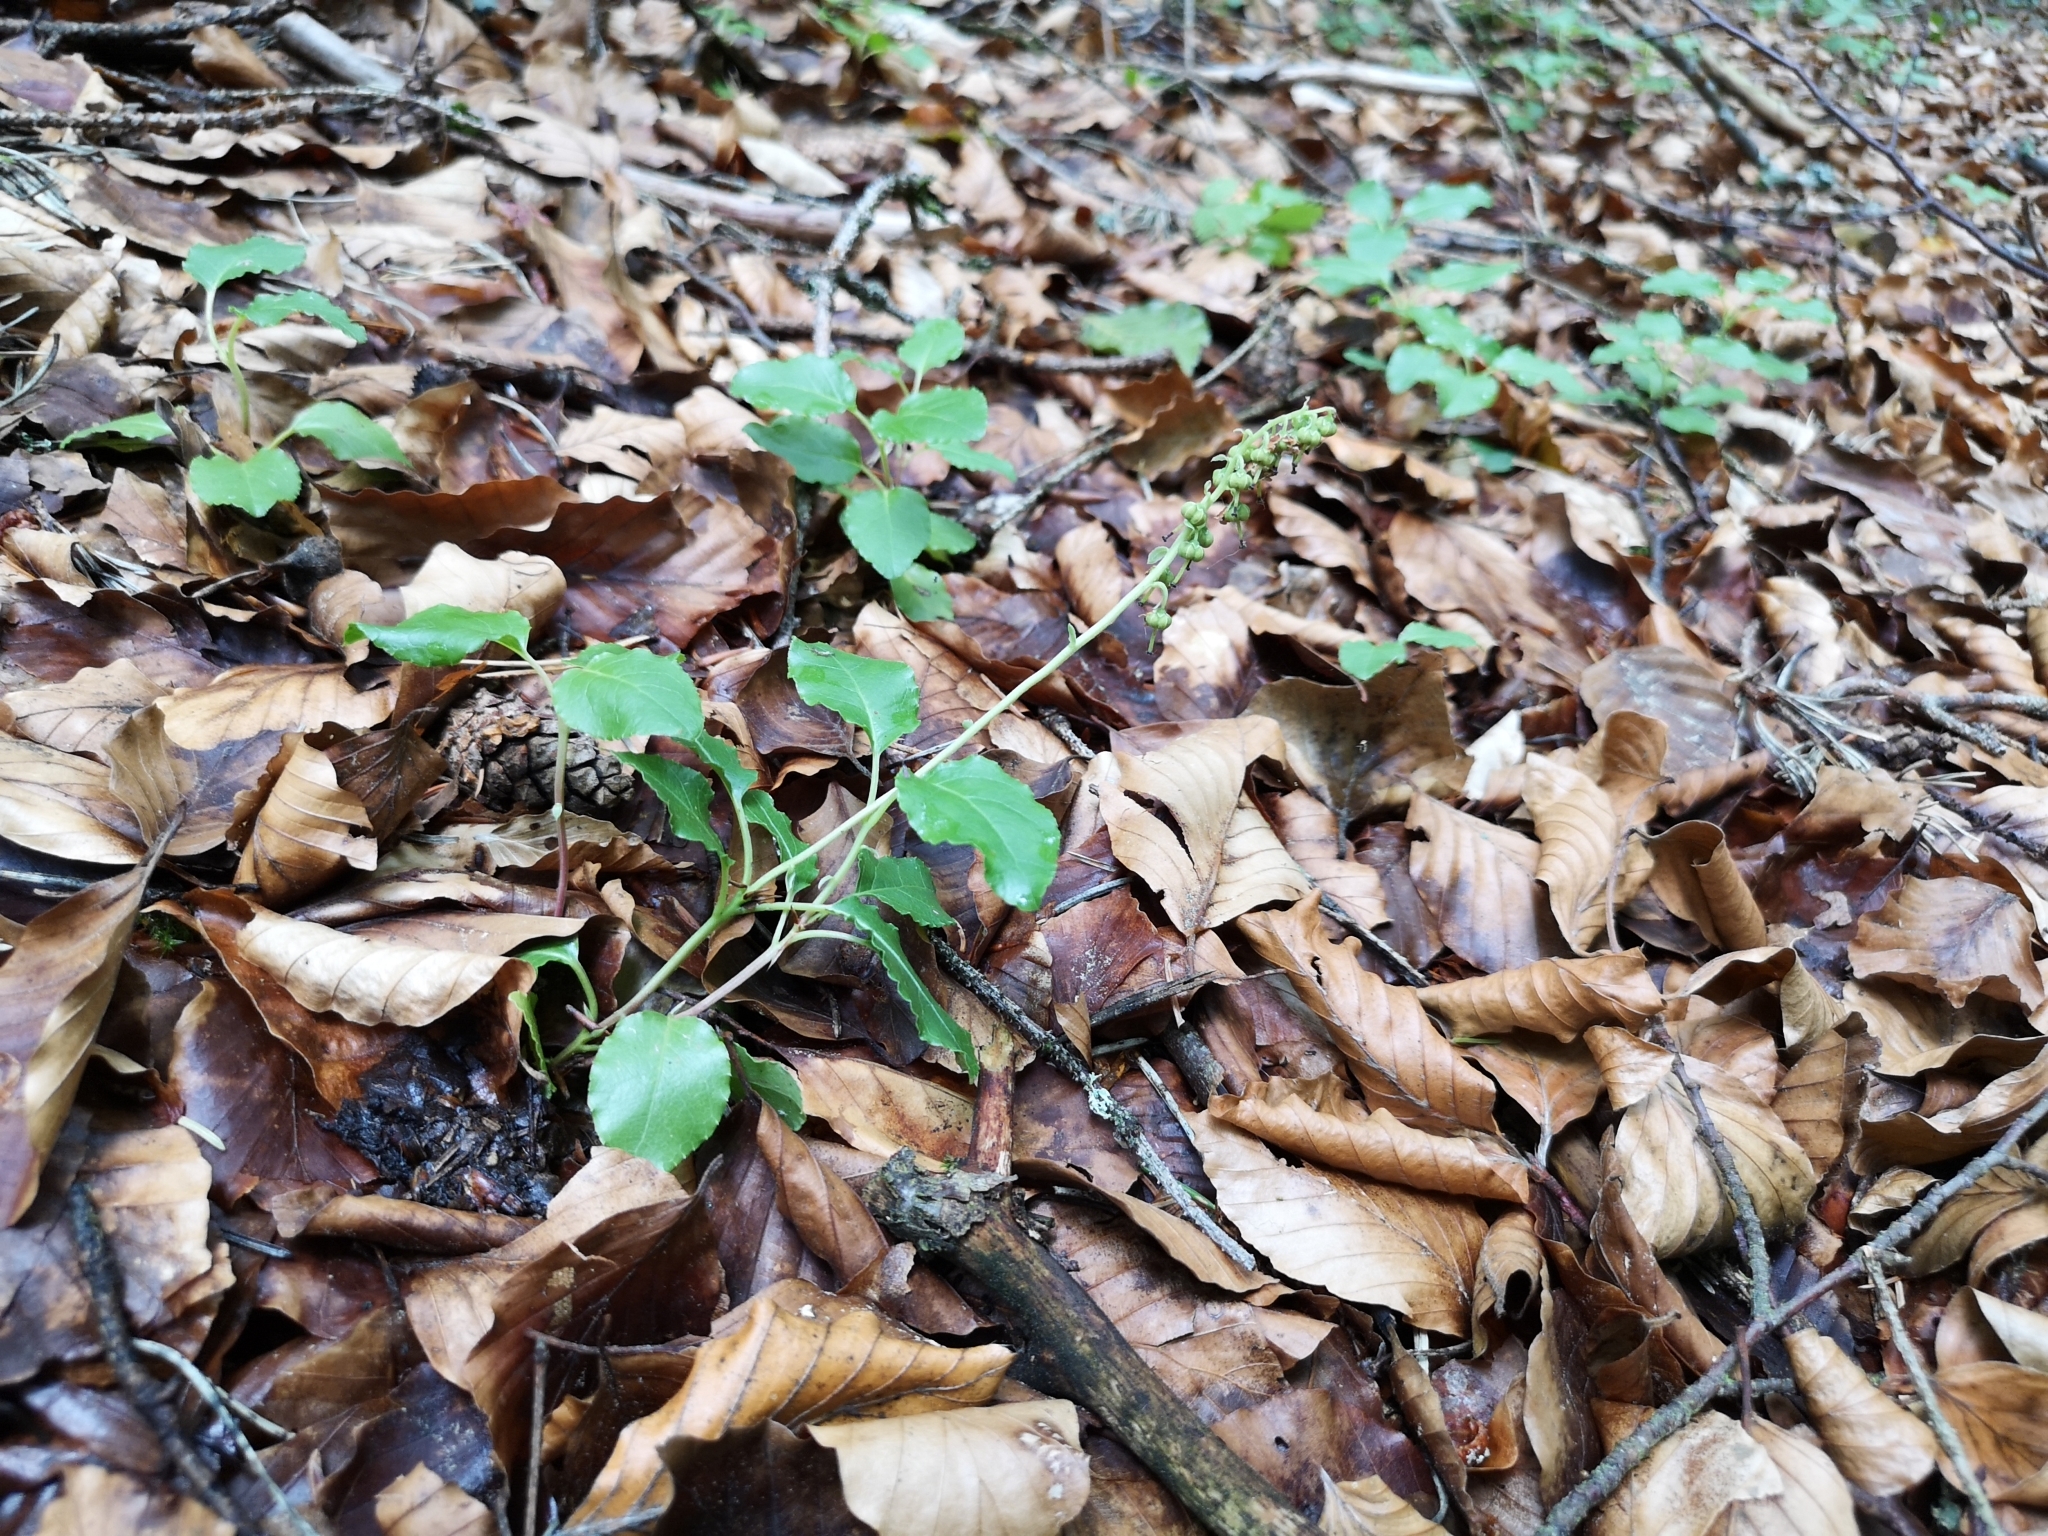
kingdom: Plantae
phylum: Tracheophyta
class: Magnoliopsida
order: Ericales
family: Ericaceae
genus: Orthilia
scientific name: Orthilia secunda
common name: One-sided orthilia
